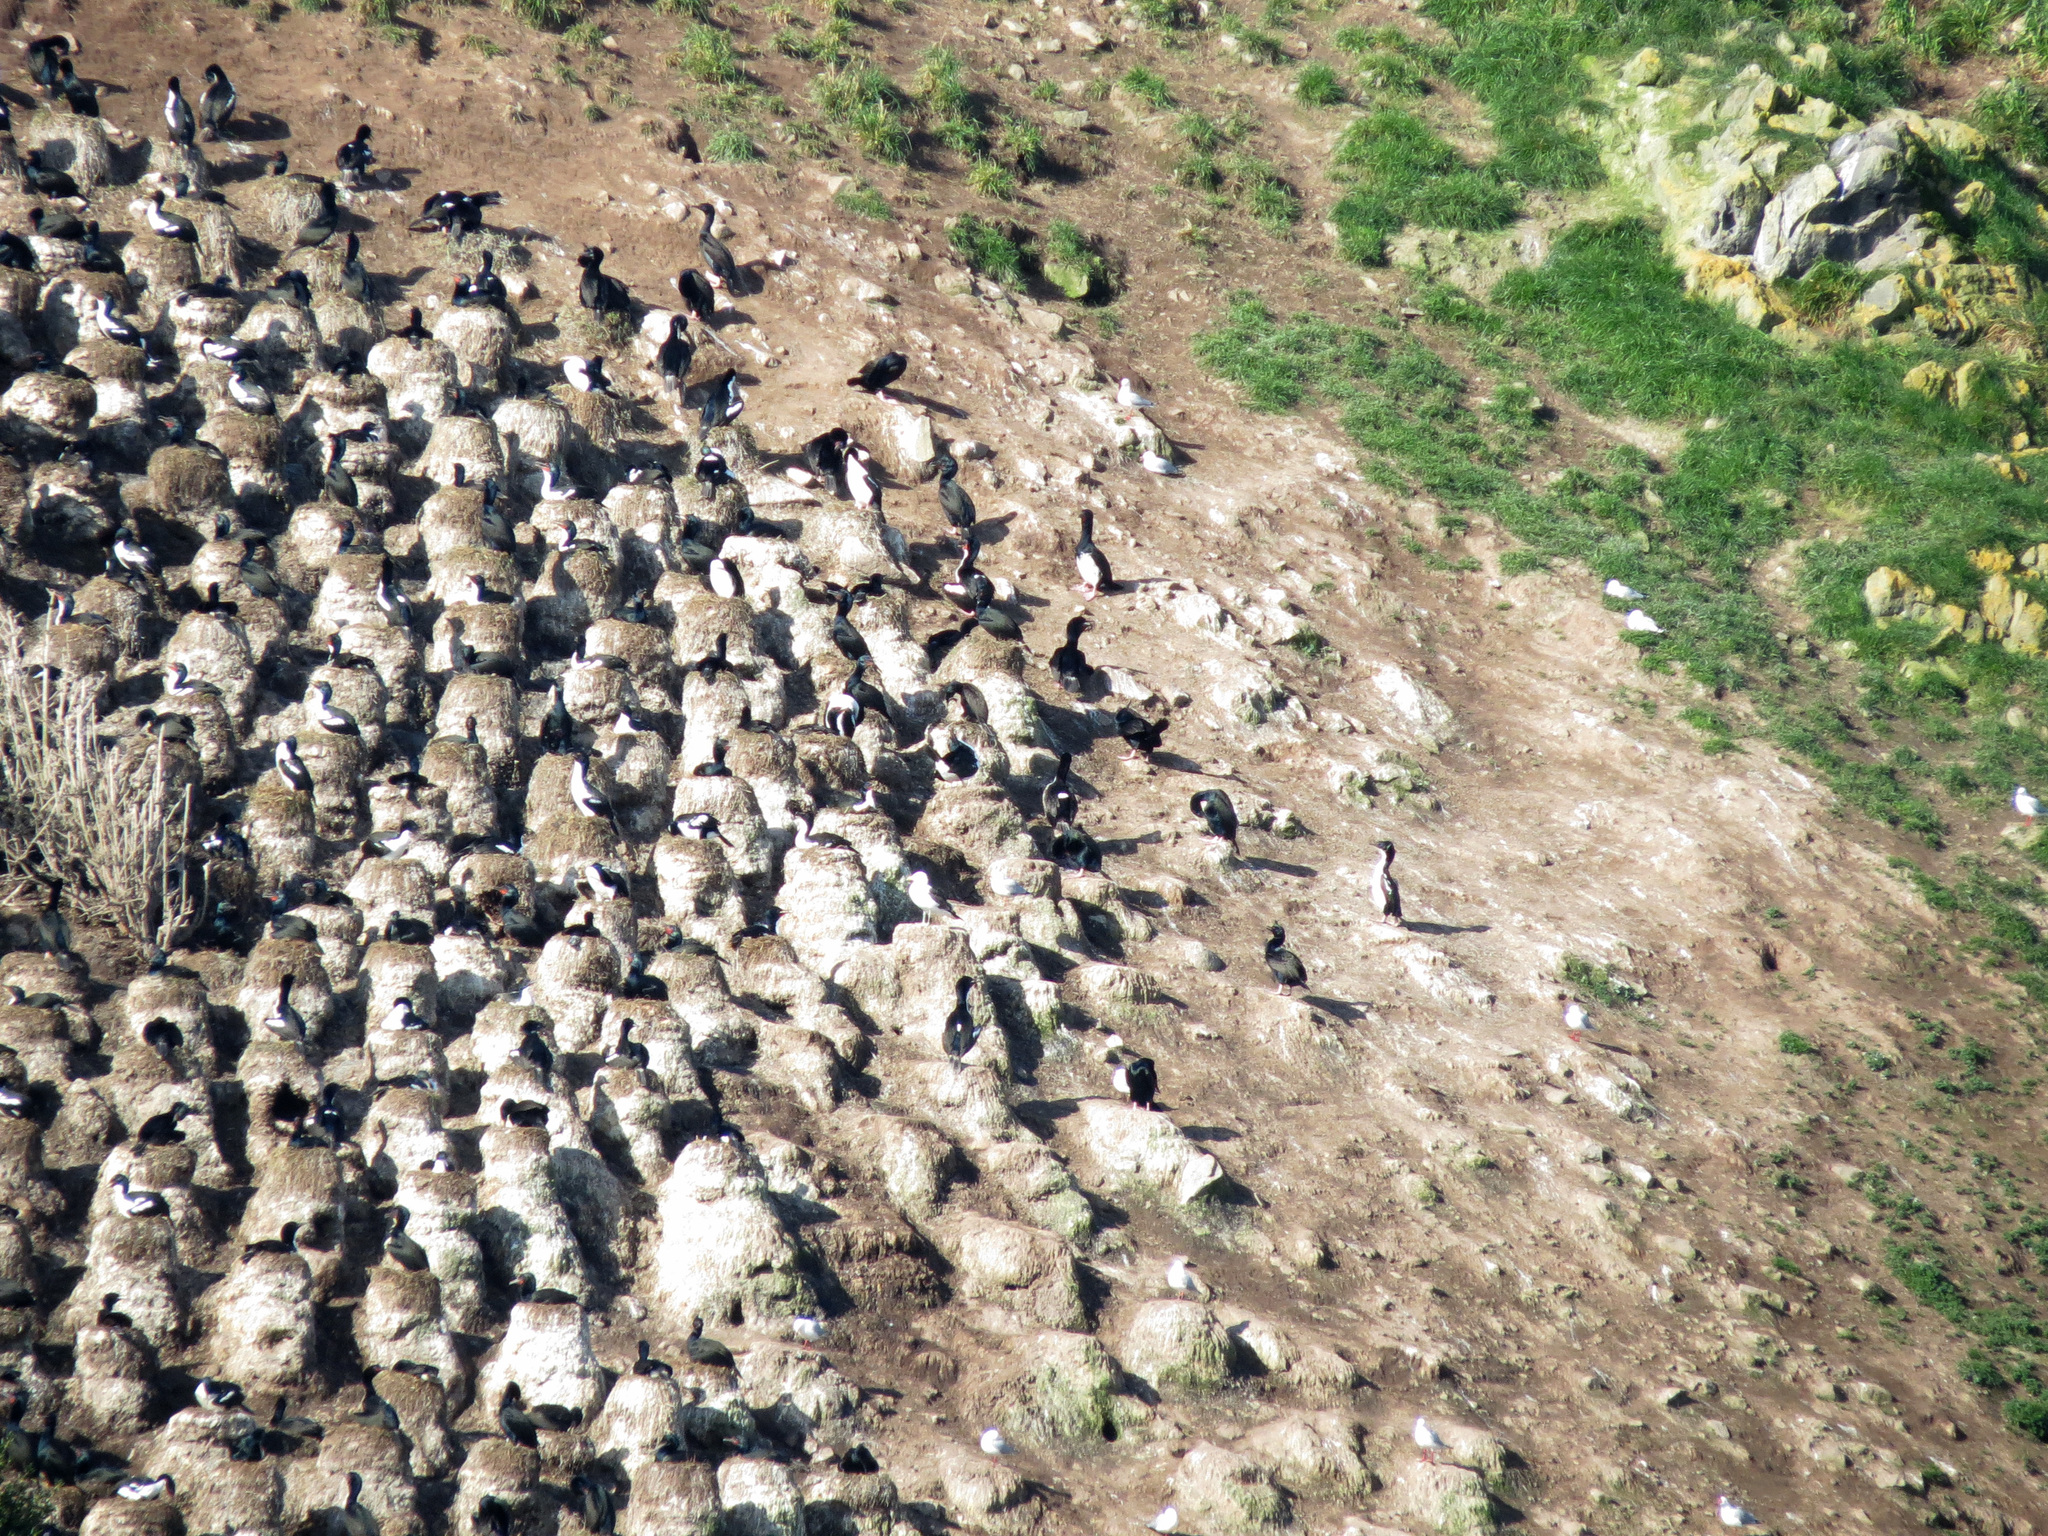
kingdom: Animalia
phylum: Chordata
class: Aves
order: Suliformes
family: Phalacrocoracidae
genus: Leucocarbo
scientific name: Leucocarbo chalconotus
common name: Stewart shag
